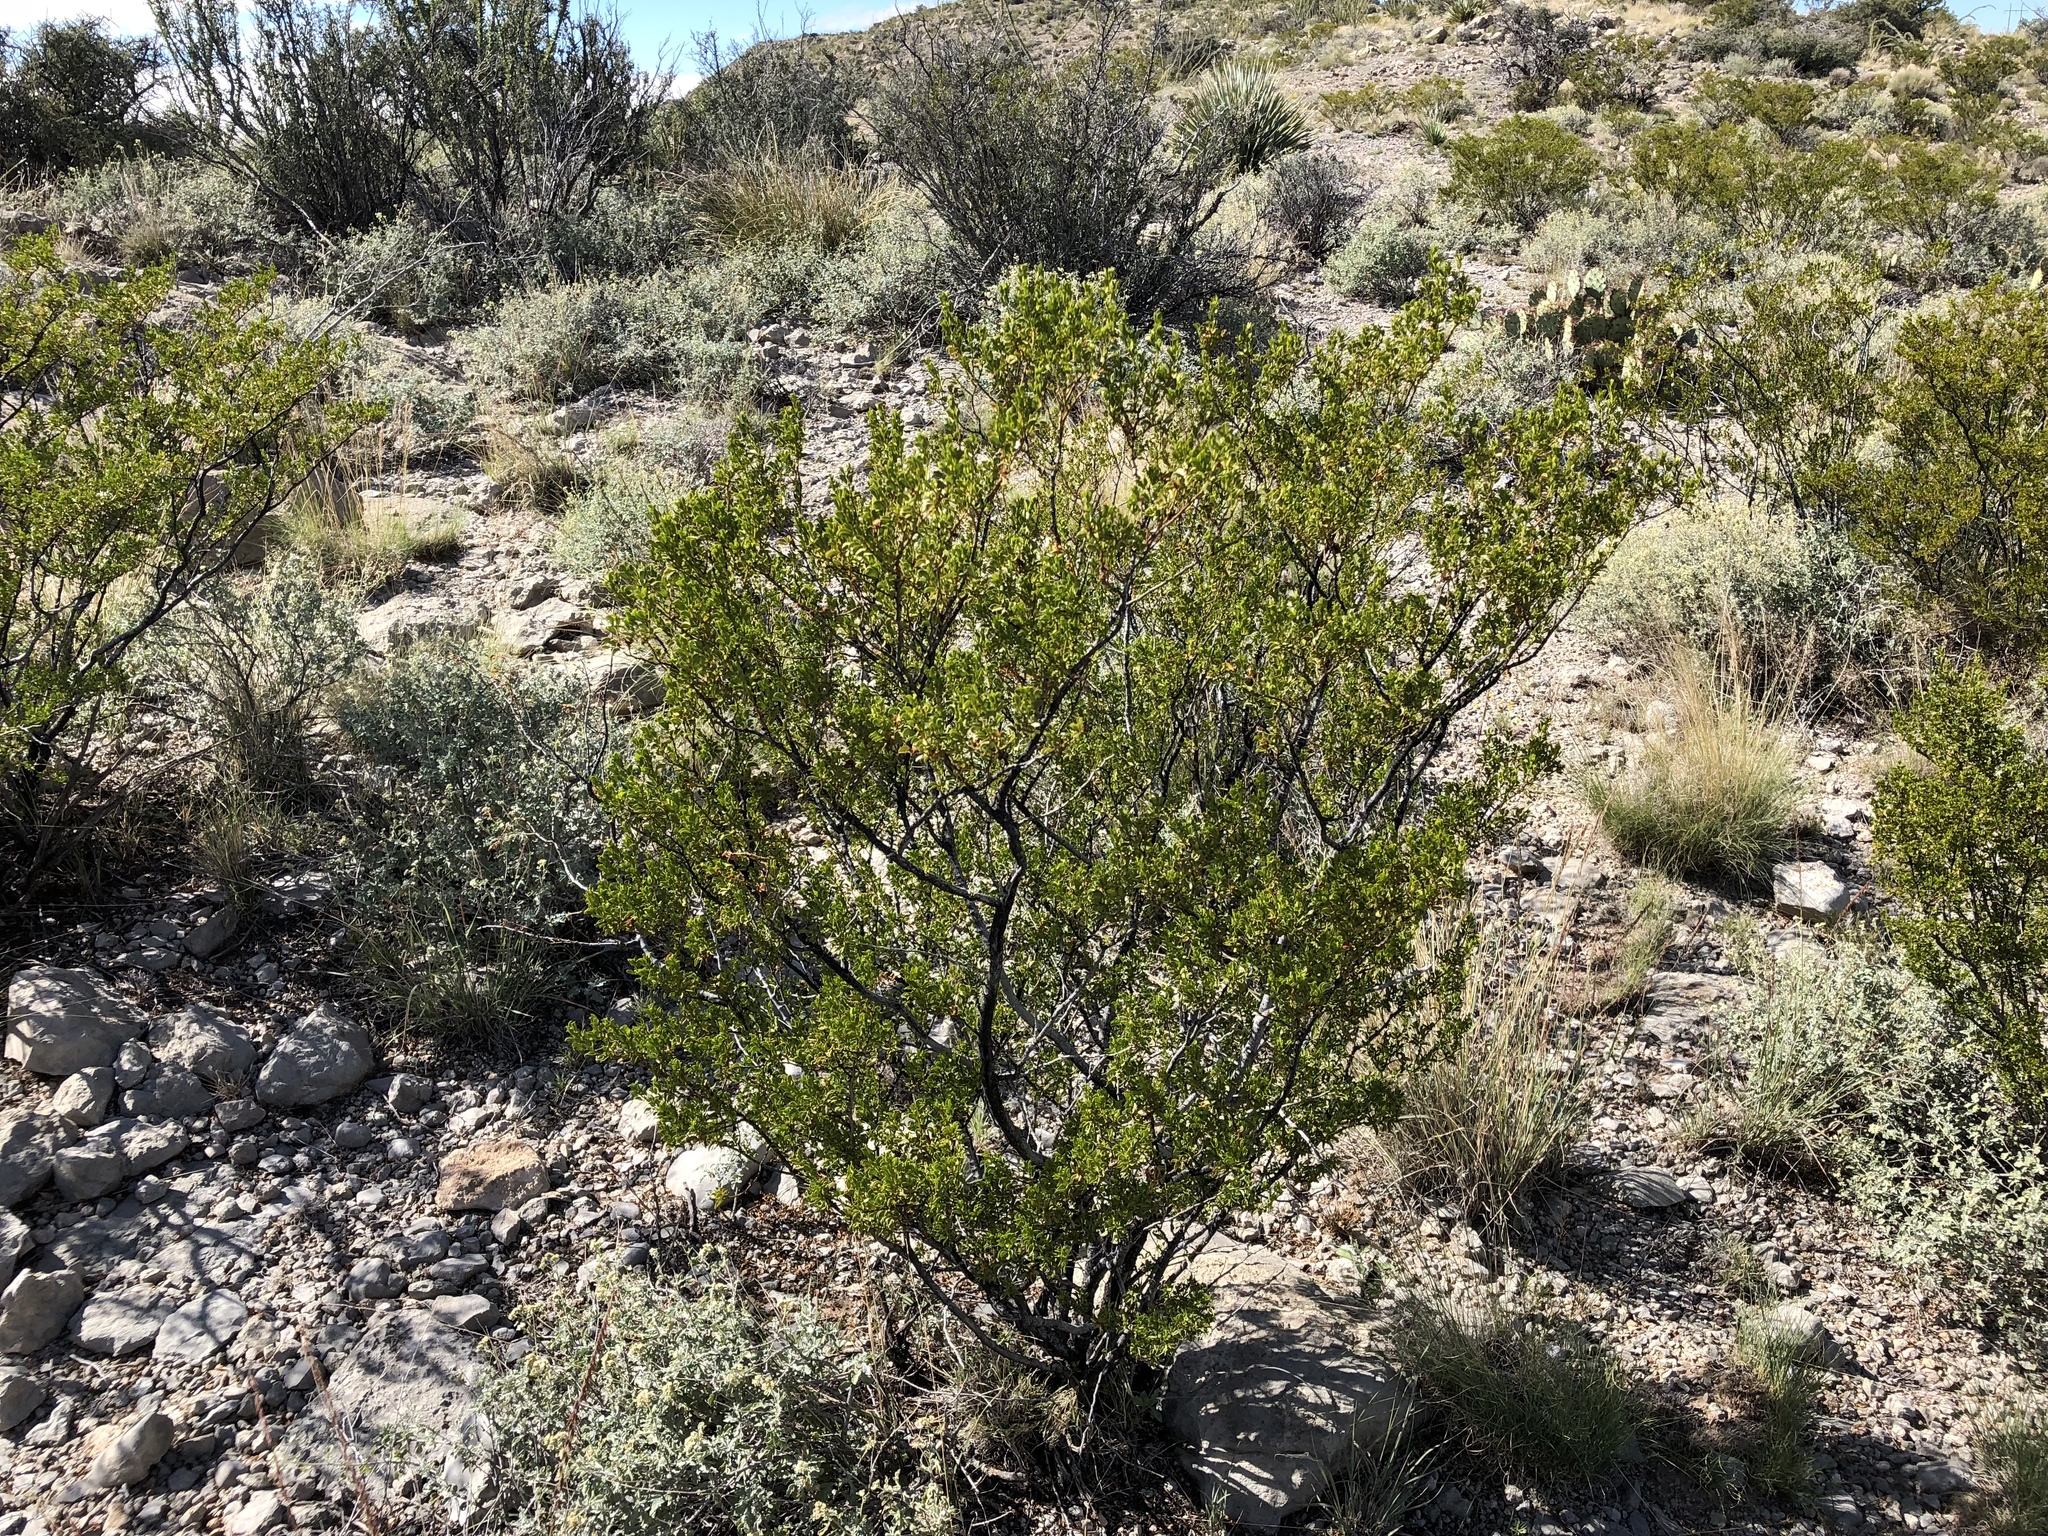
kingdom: Plantae
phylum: Tracheophyta
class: Magnoliopsida
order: Zygophyllales
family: Zygophyllaceae
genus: Larrea
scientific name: Larrea tridentata
